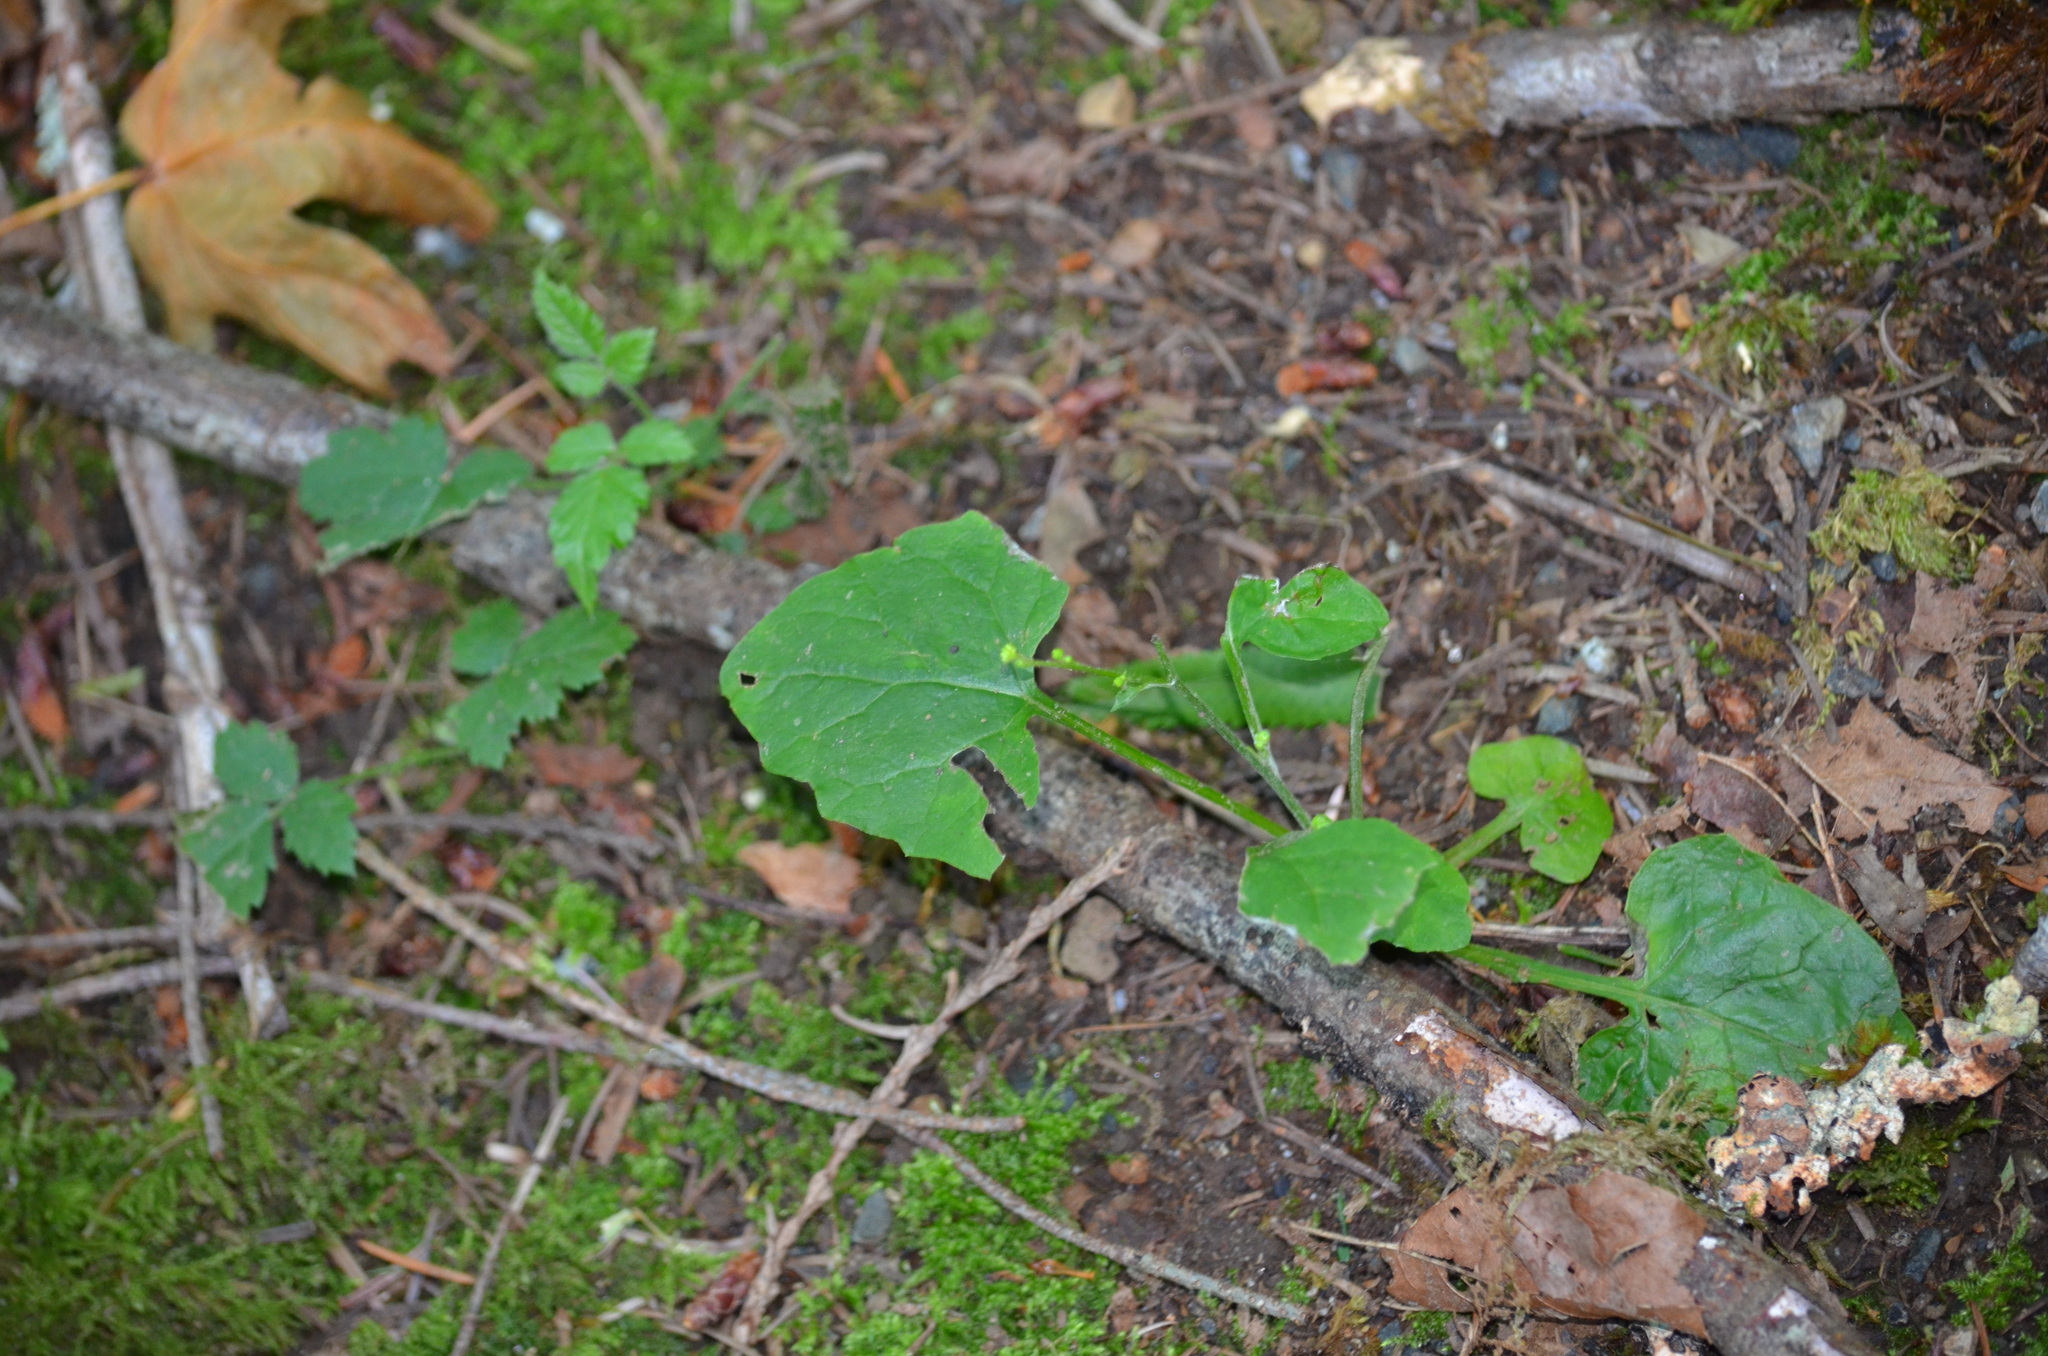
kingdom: Plantae
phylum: Tracheophyta
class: Magnoliopsida
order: Asterales
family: Asteraceae
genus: Adenocaulon
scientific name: Adenocaulon bicolor
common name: Trailplant
